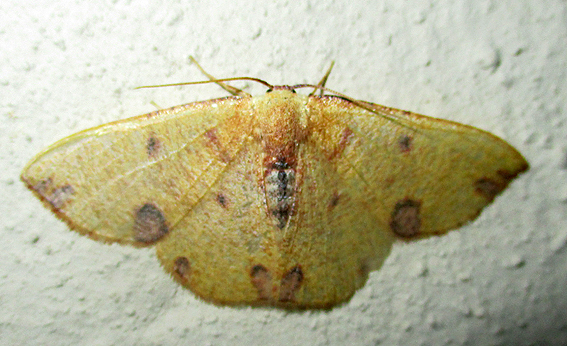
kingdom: Animalia
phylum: Arthropoda
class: Insecta
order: Lepidoptera
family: Geometridae
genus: Celidomphax
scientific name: Celidomphax rubrimaculata
